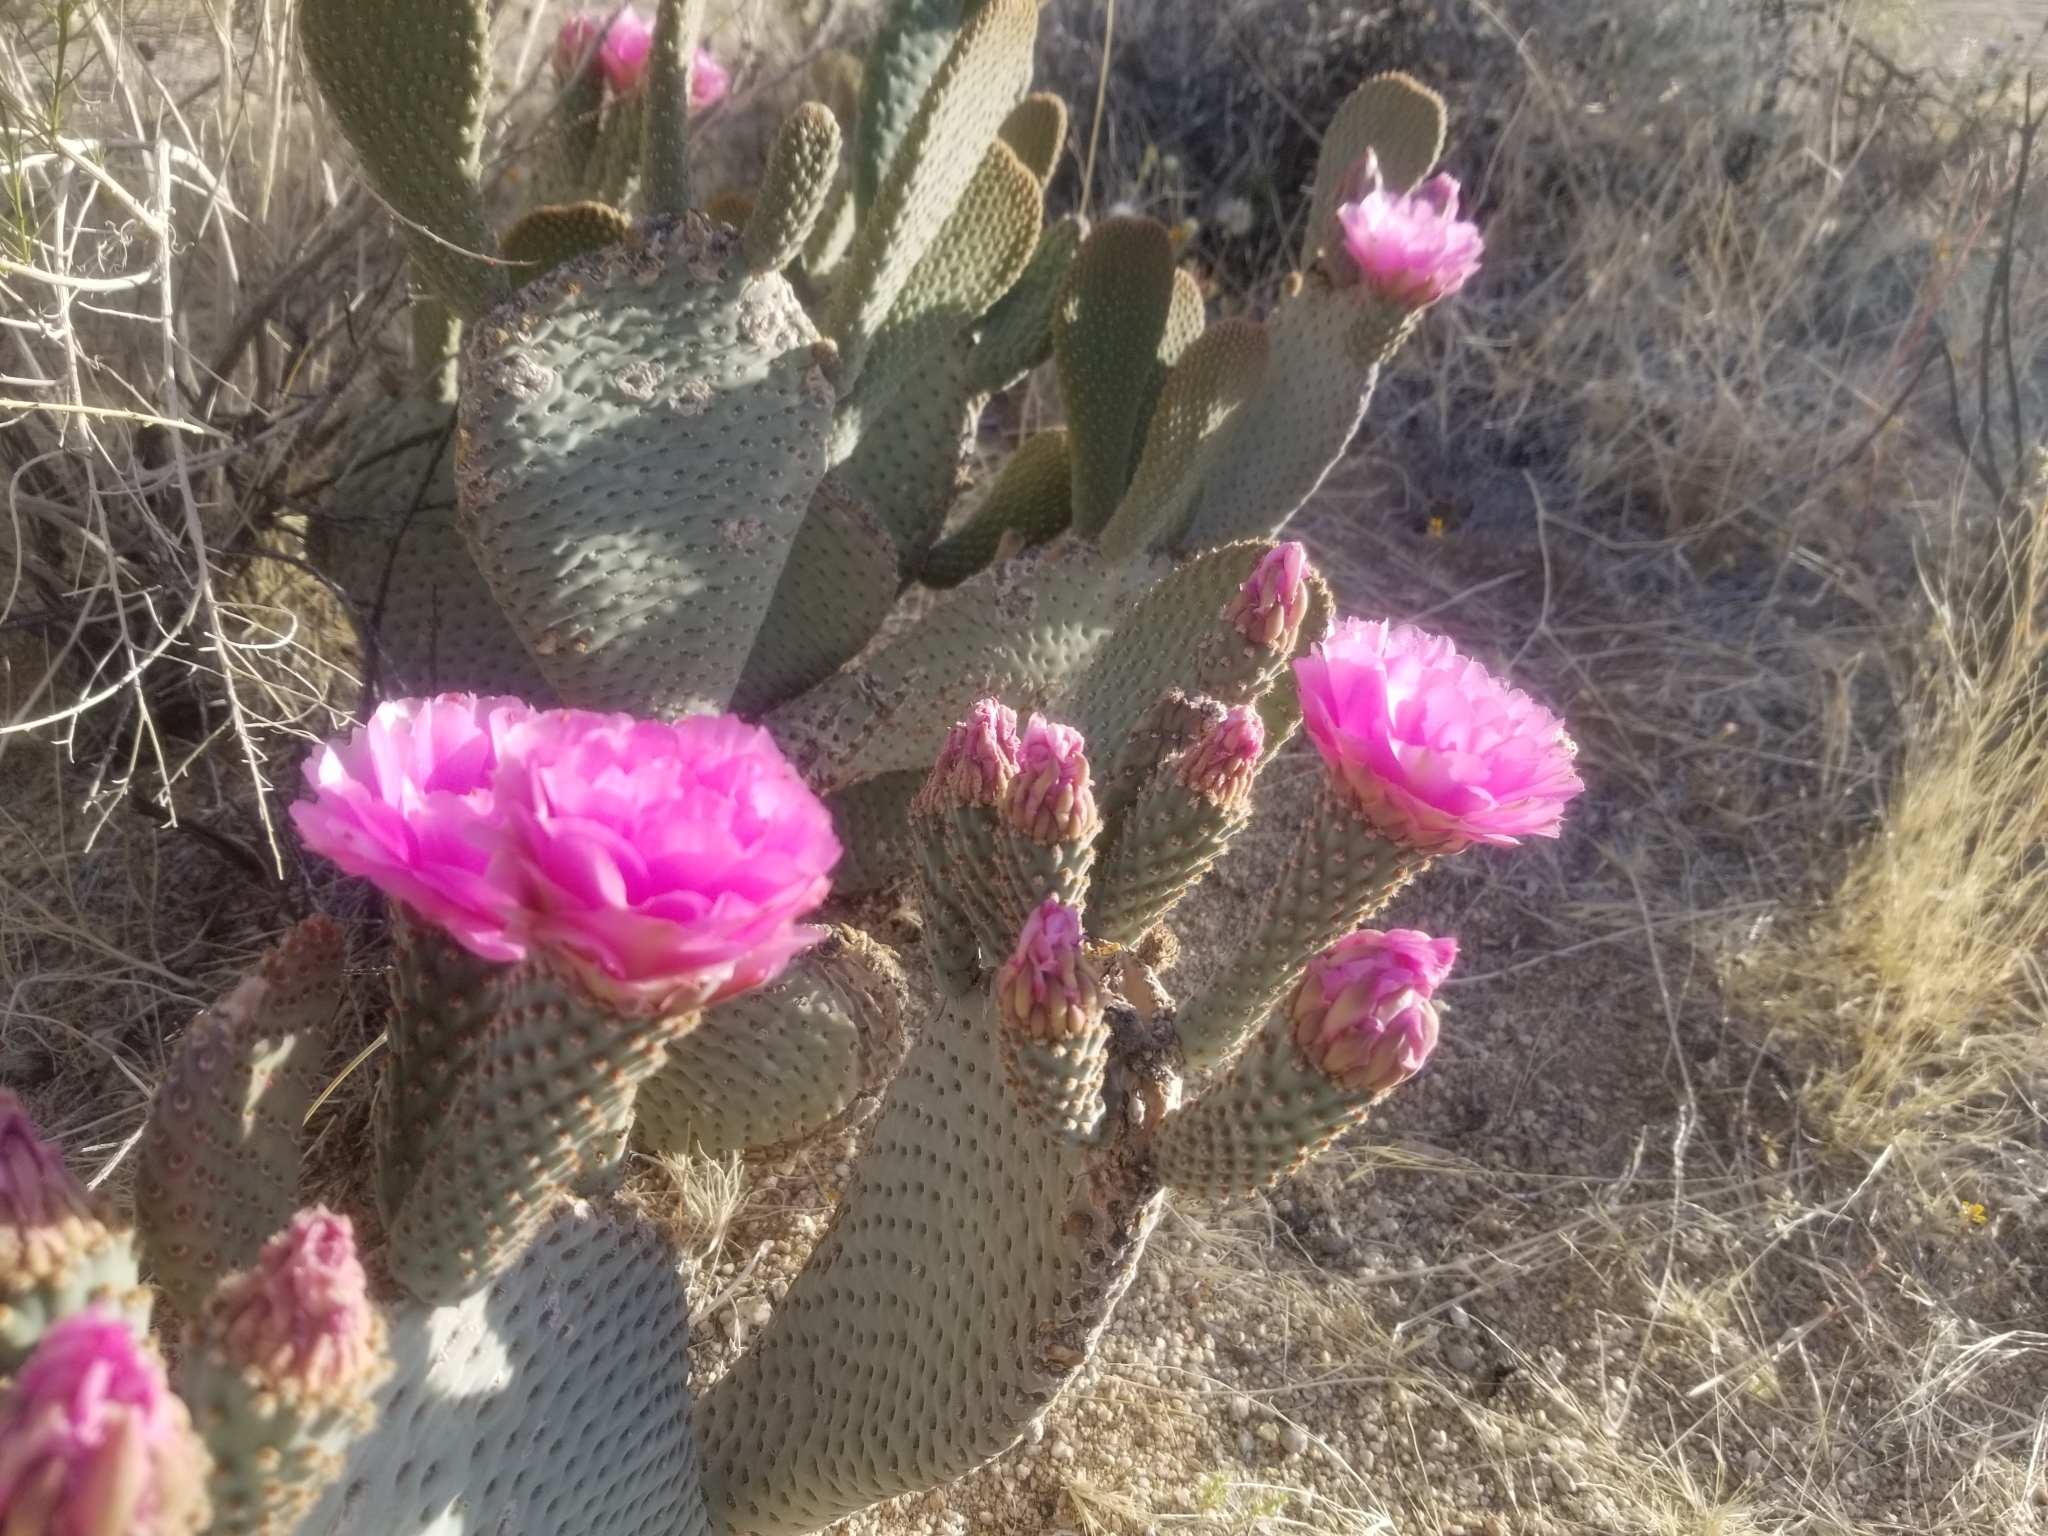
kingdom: Plantae
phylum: Tracheophyta
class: Magnoliopsida
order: Caryophyllales
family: Cactaceae
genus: Opuntia
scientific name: Opuntia basilaris
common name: Beavertail prickly-pear
